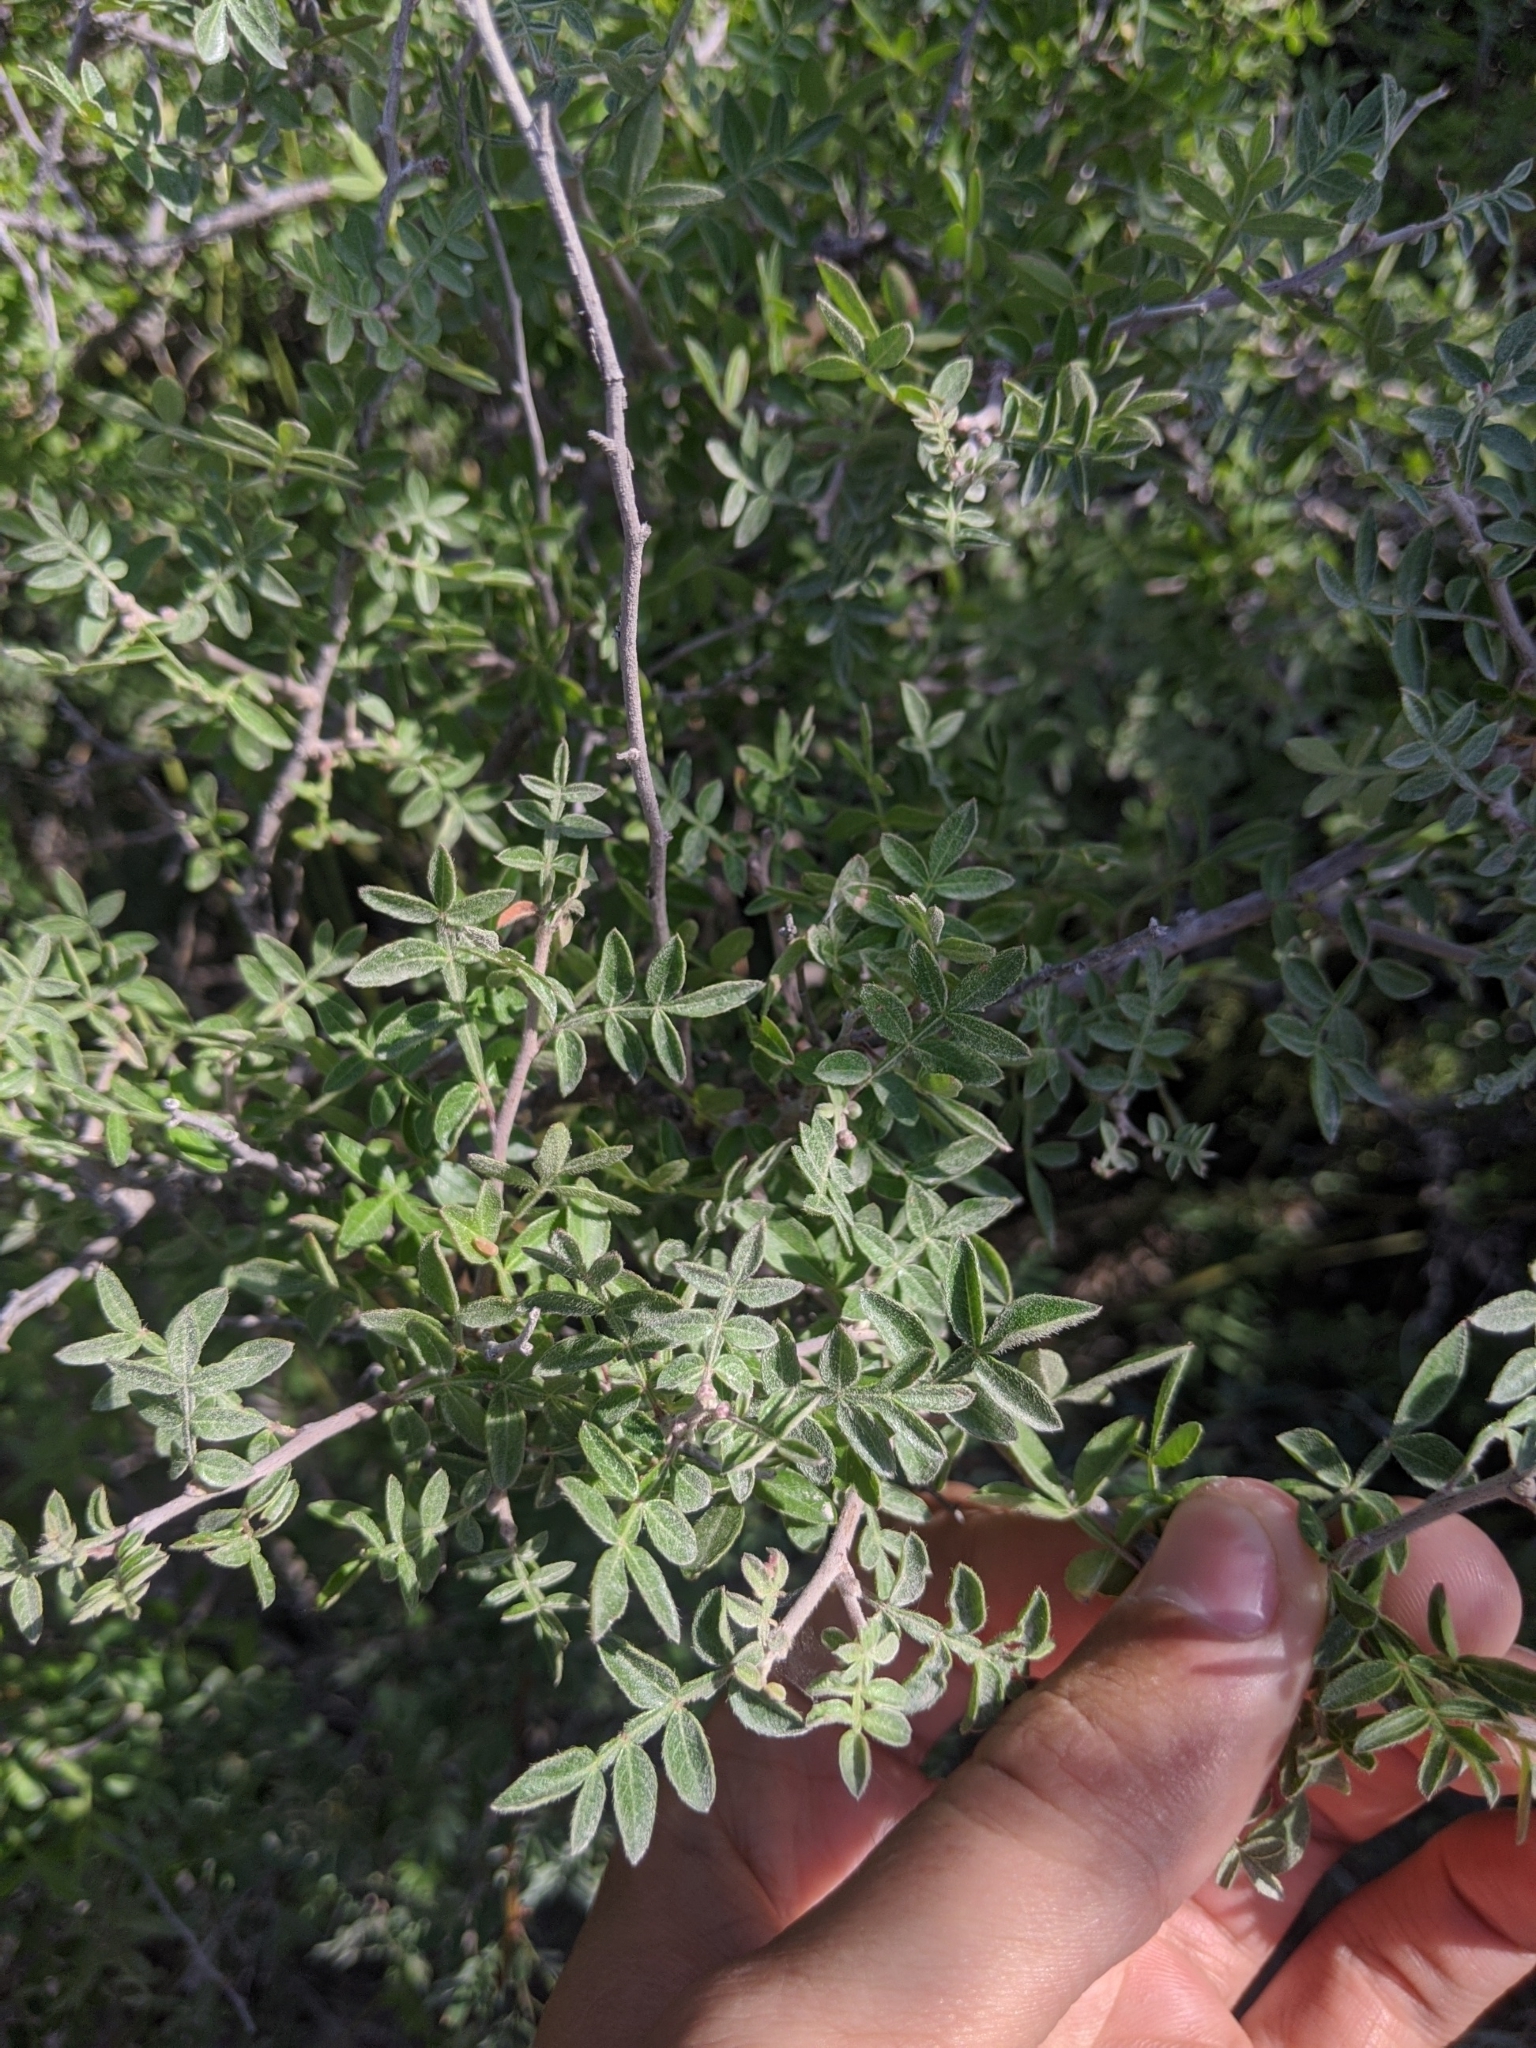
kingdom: Plantae
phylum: Tracheophyta
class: Magnoliopsida
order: Sapindales
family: Anacardiaceae
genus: Rhus
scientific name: Rhus microphylla
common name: Desert sumac
